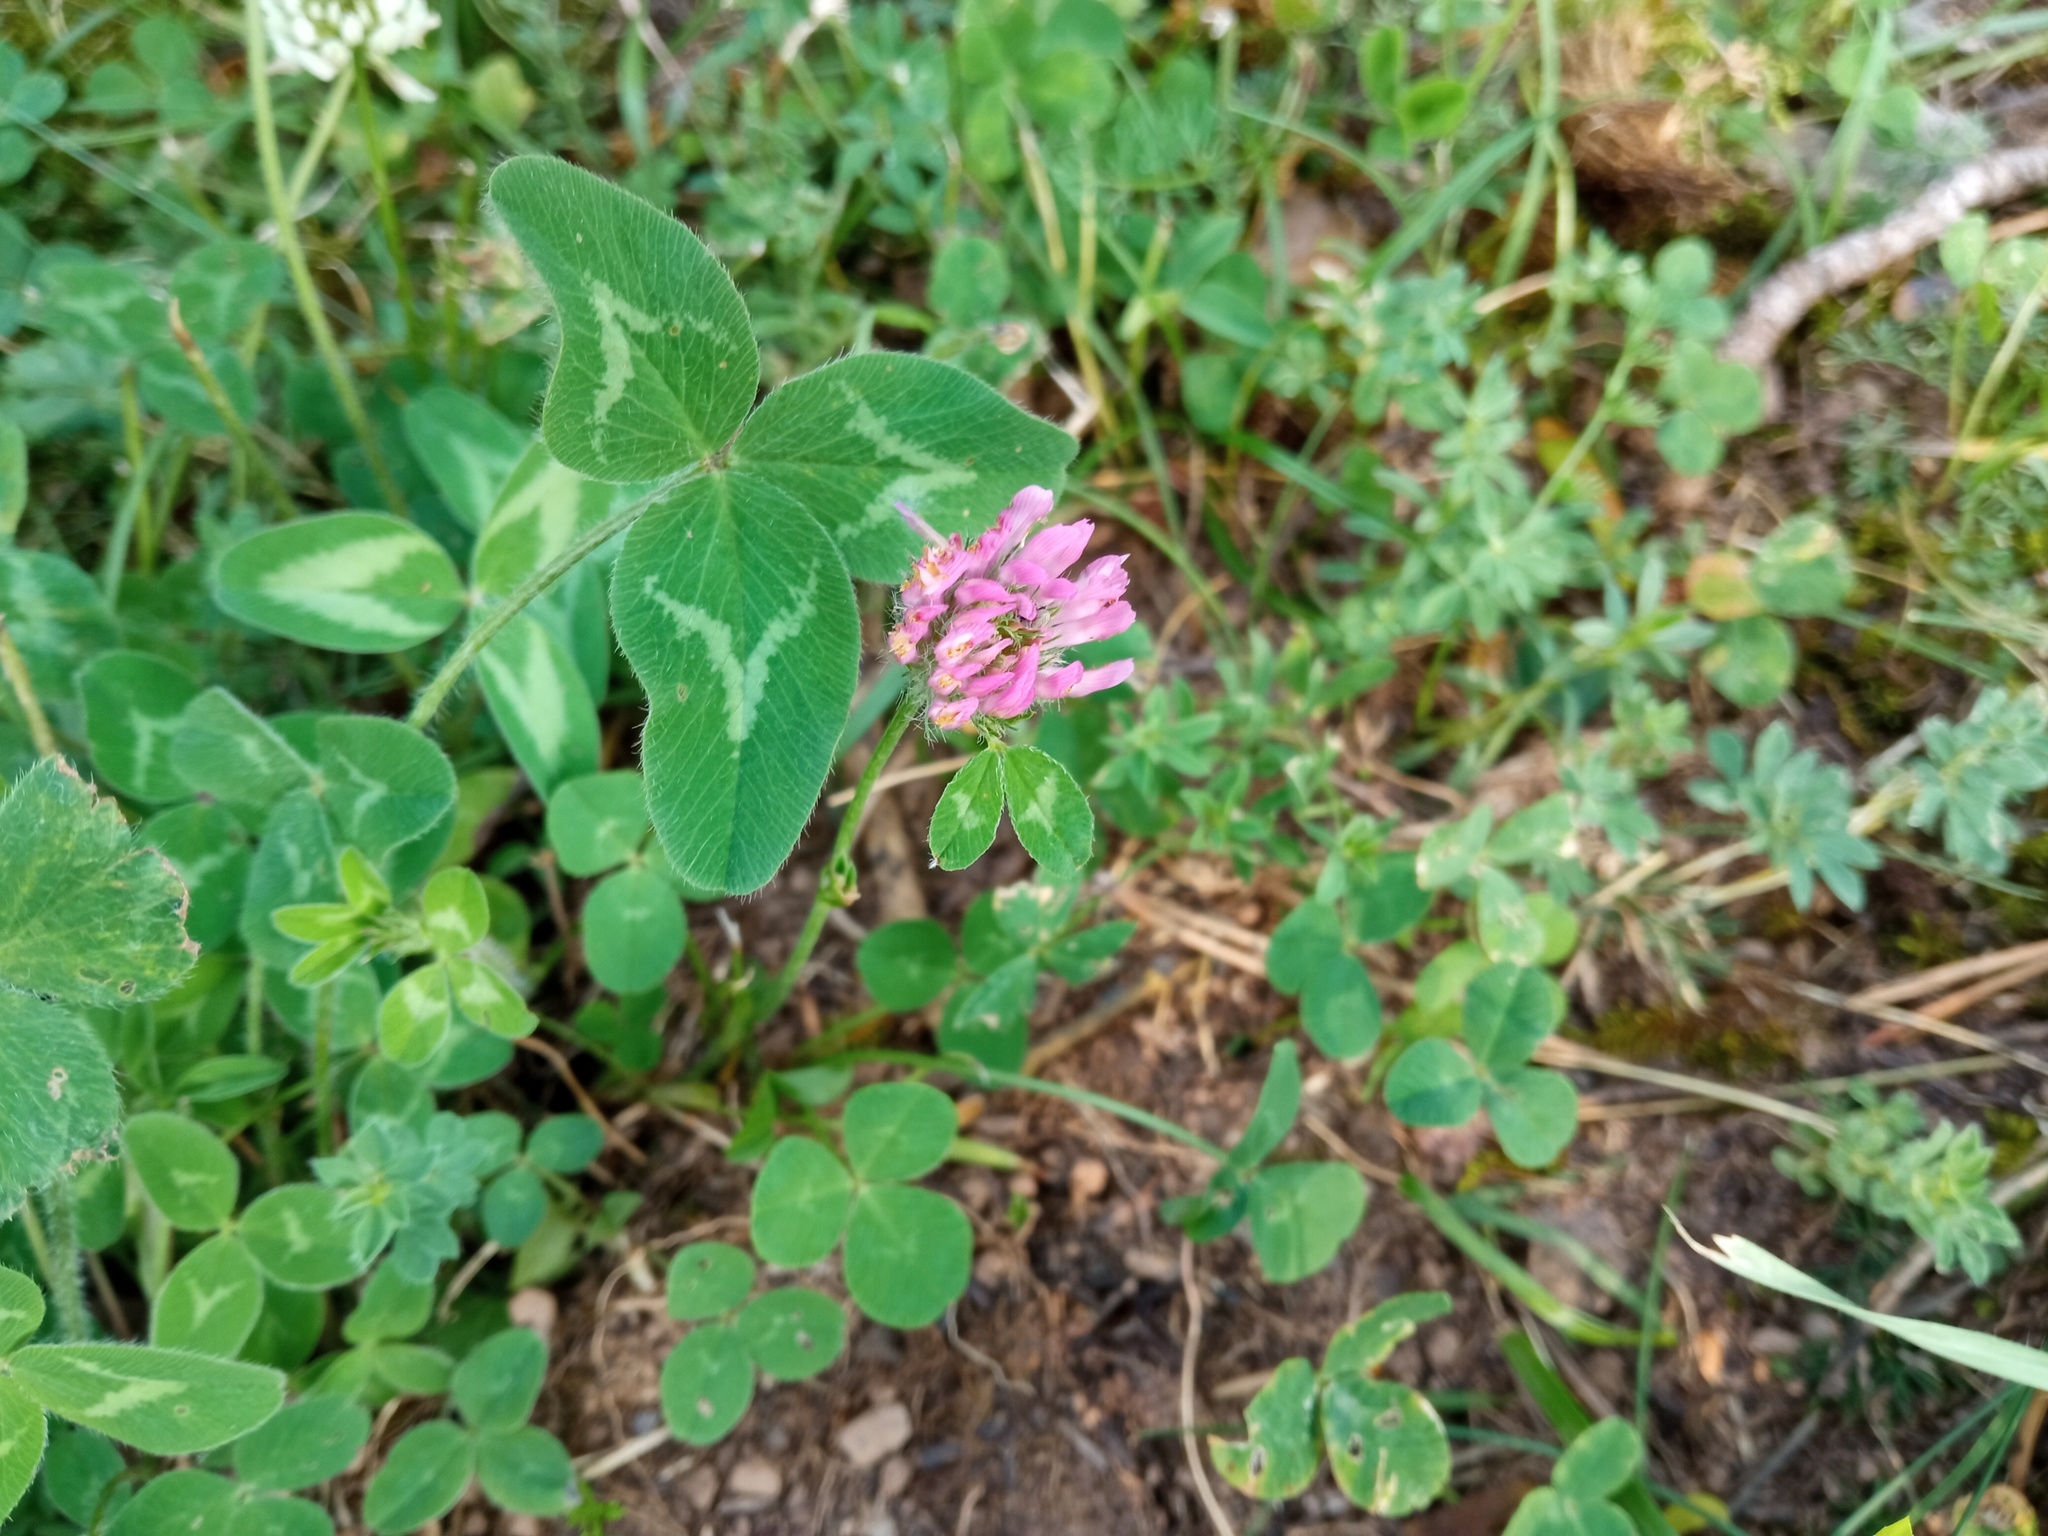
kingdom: Plantae
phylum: Tracheophyta
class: Magnoliopsida
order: Fabales
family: Fabaceae
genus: Trifolium
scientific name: Trifolium pratense
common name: Red clover
